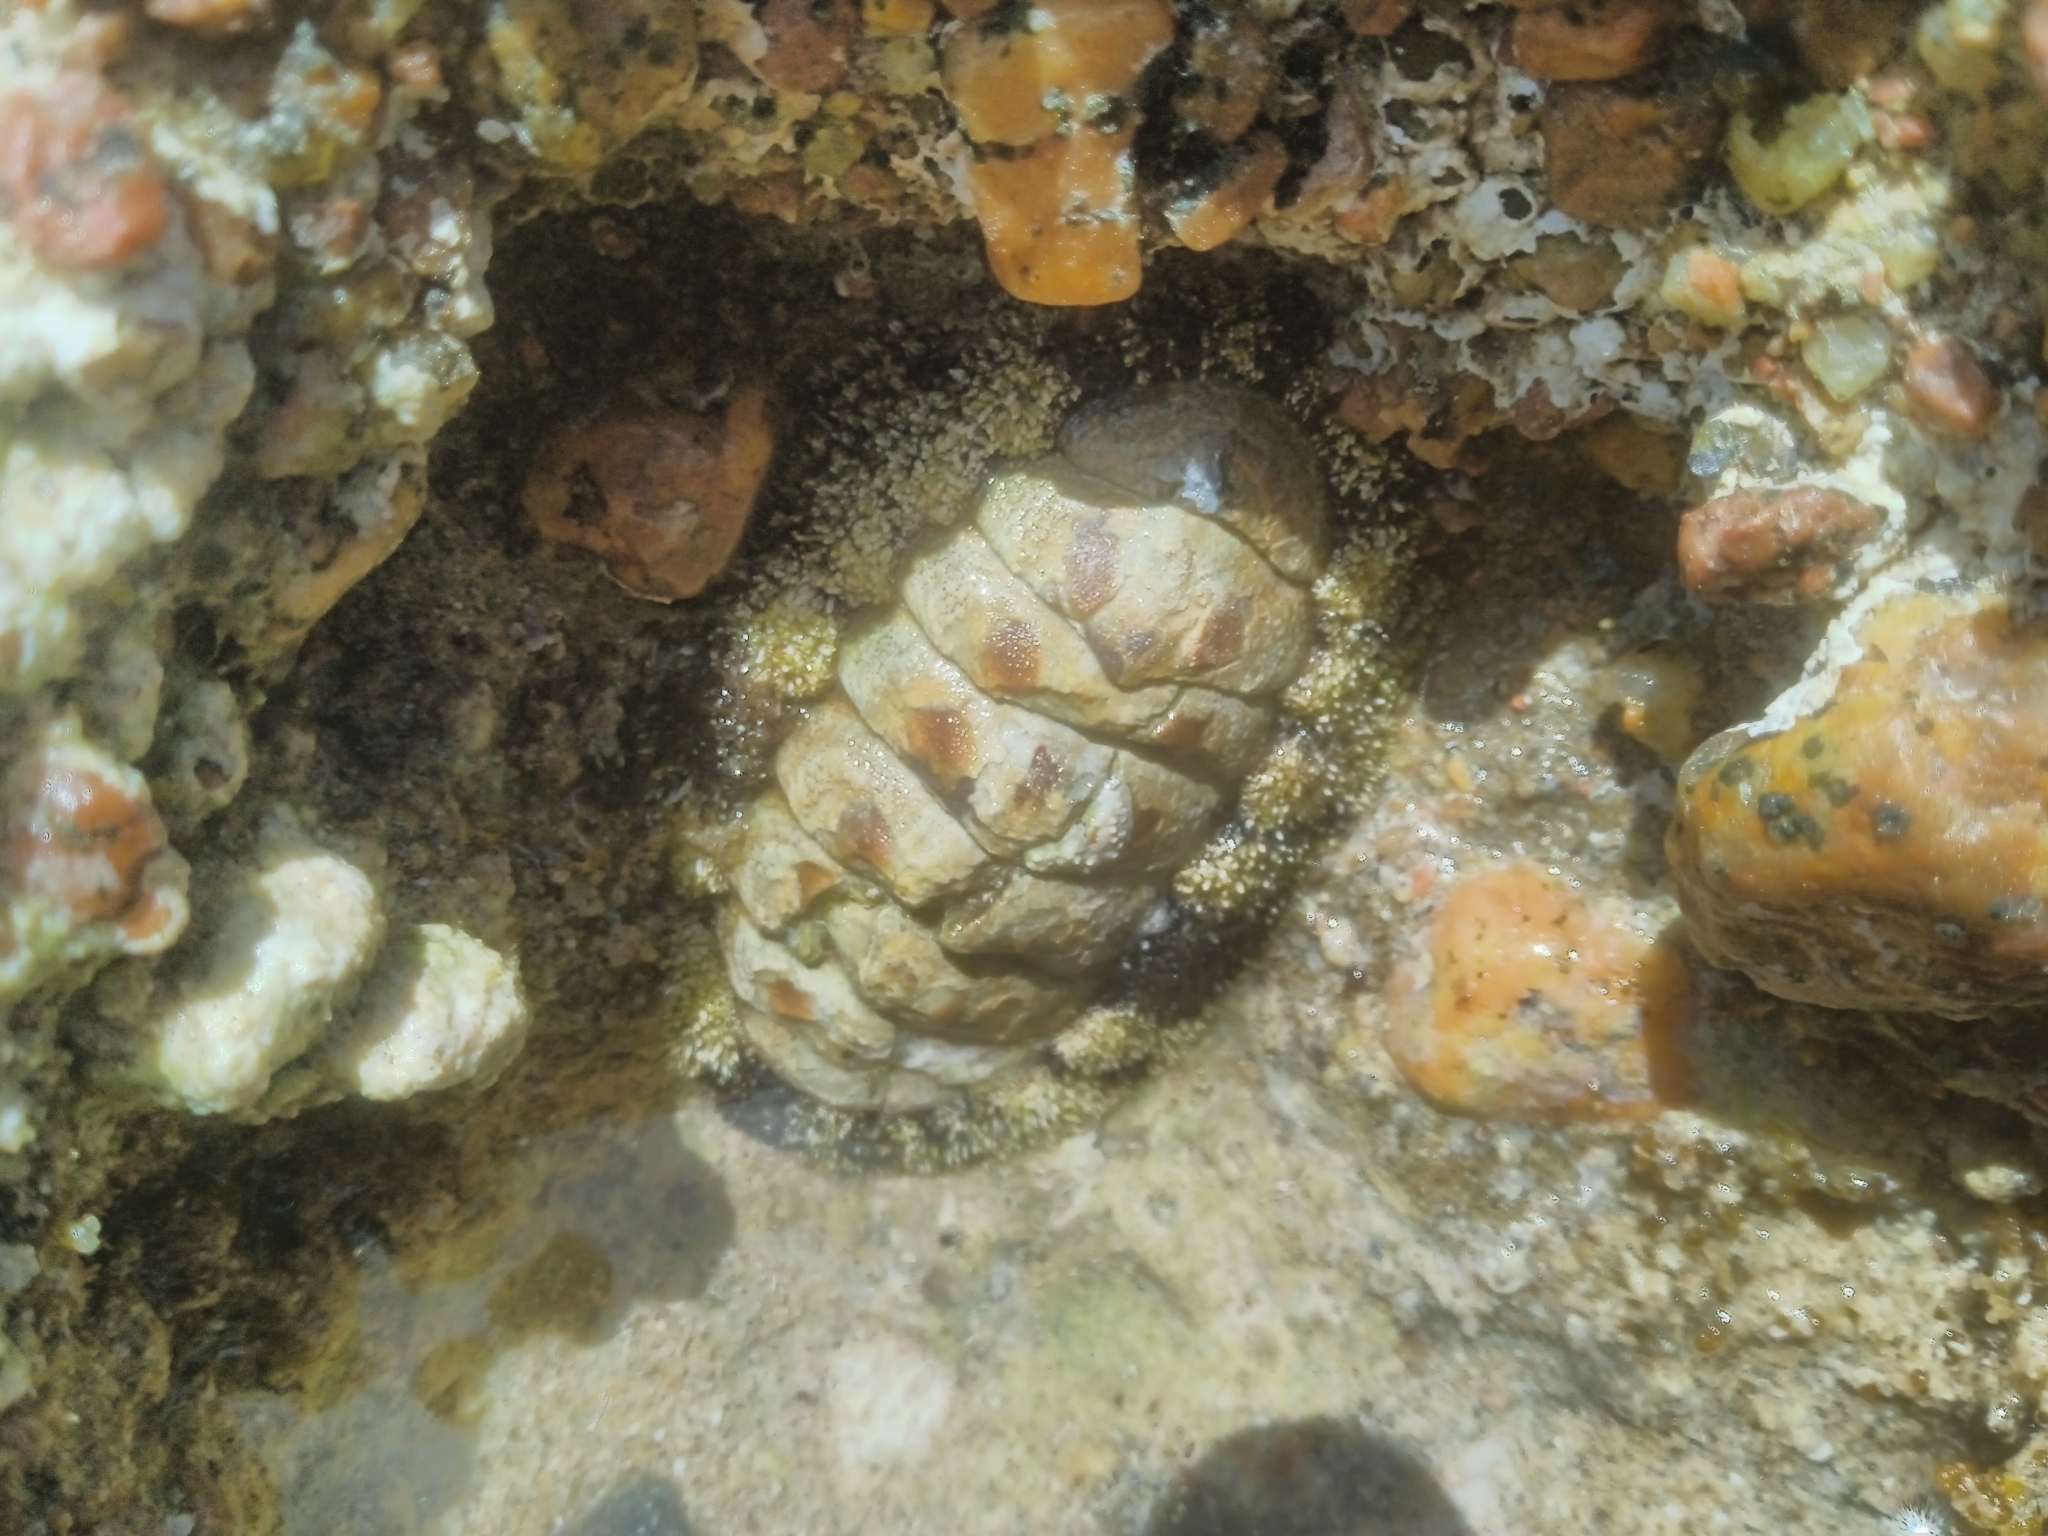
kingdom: Animalia
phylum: Mollusca
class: Polyplacophora
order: Chitonida
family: Chitonidae
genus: Acanthopleura
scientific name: Acanthopleura vaillantii
